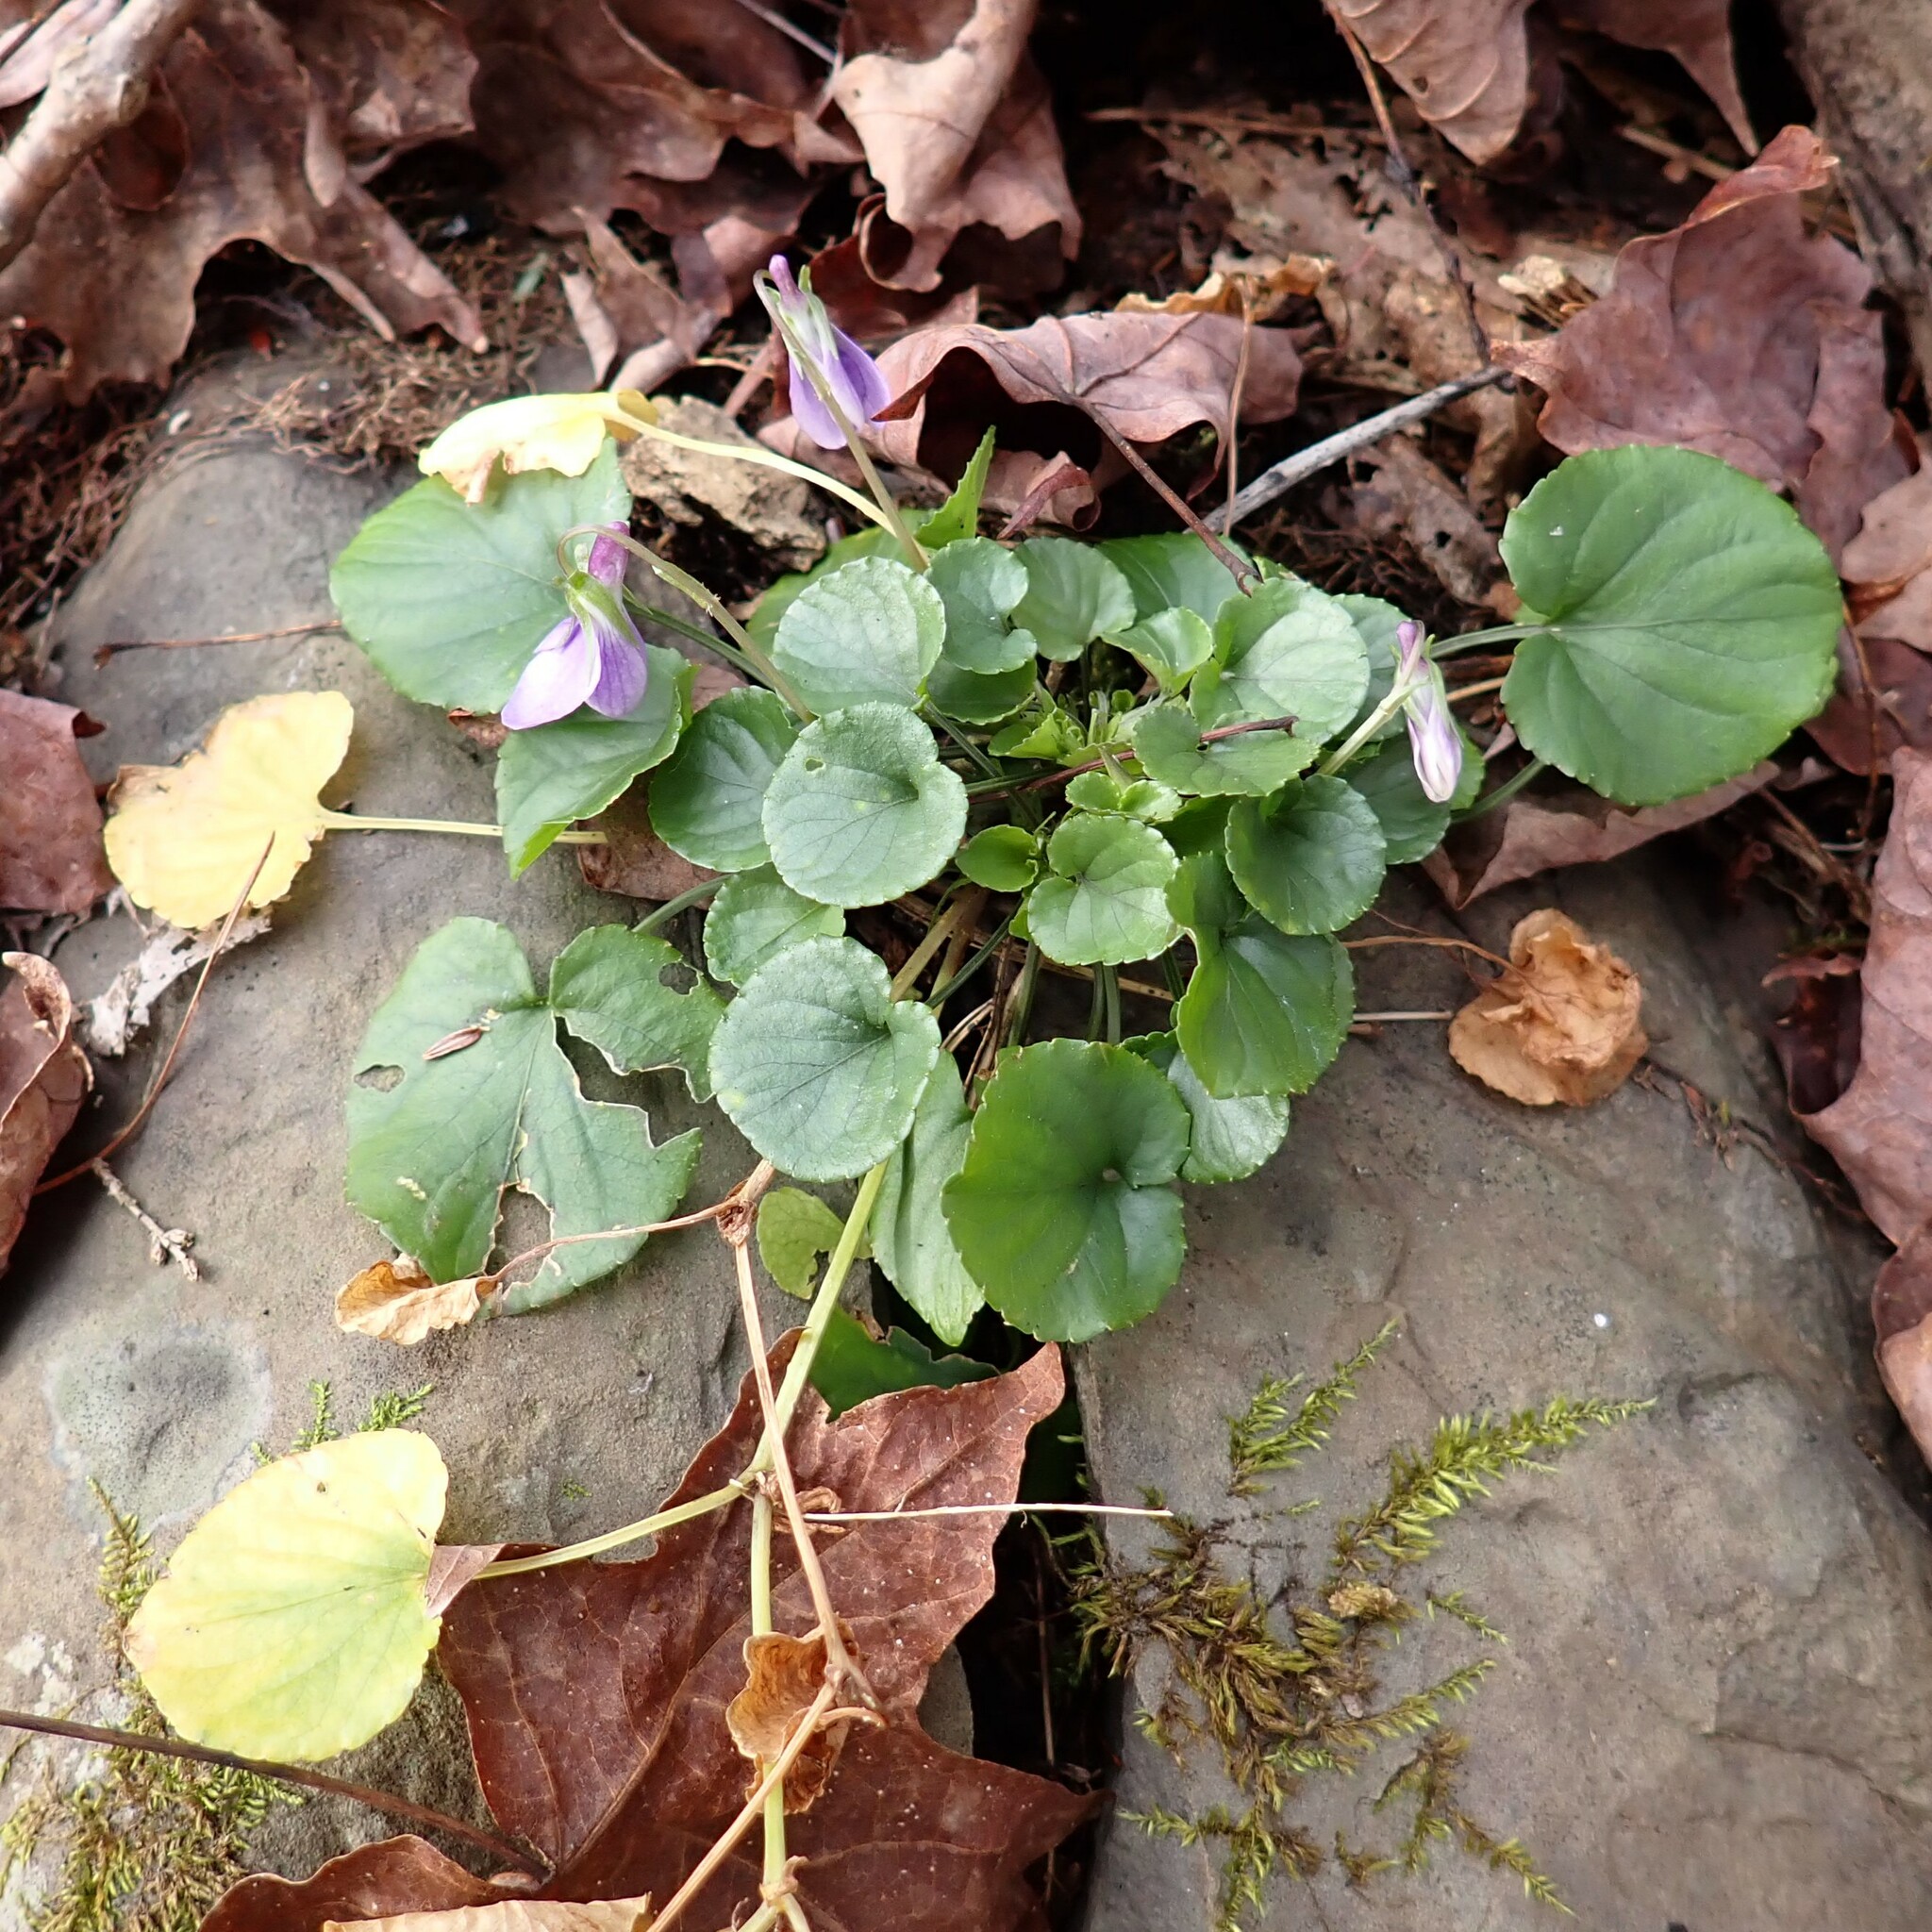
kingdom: Plantae
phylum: Tracheophyta
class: Magnoliopsida
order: Malpighiales
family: Violaceae
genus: Viola
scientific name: Viola sororia
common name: Dooryard violet
